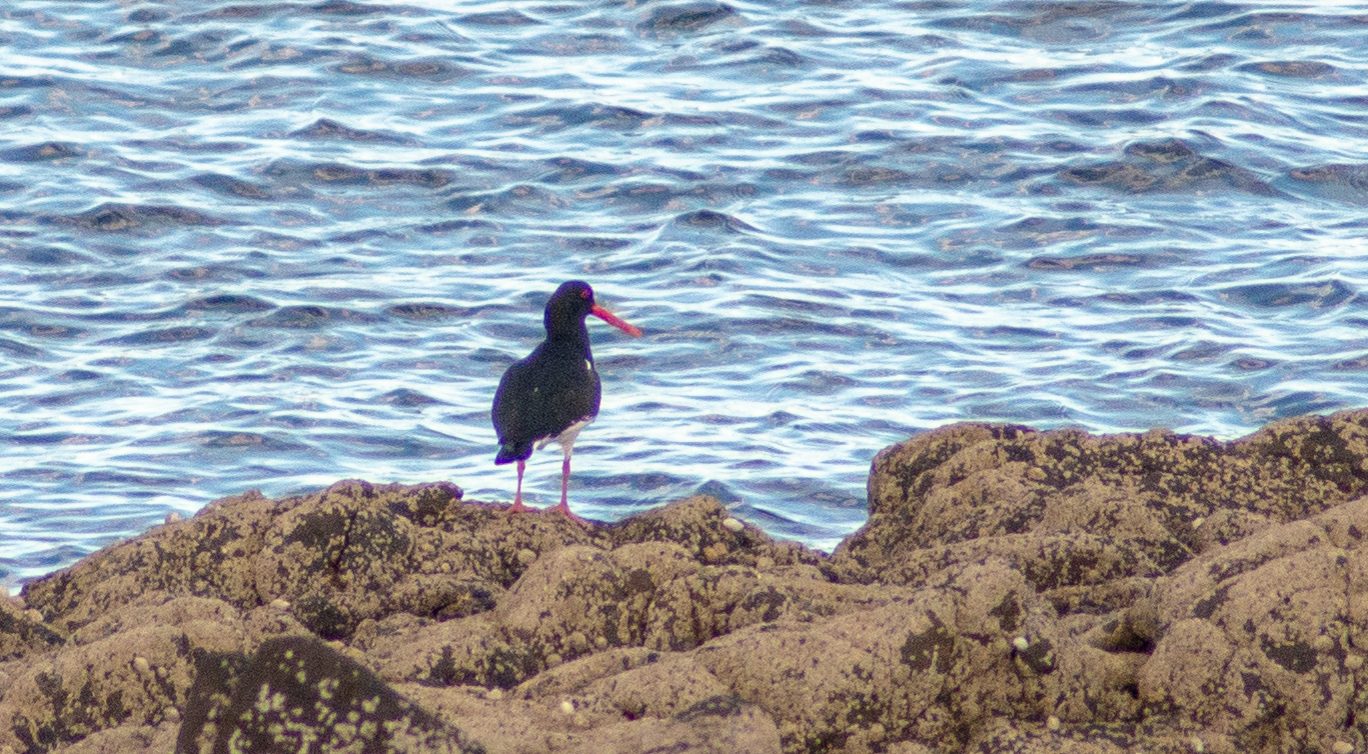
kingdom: Animalia
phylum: Chordata
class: Aves
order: Charadriiformes
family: Haematopodidae
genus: Haematopus
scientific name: Haematopus ostralegus
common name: Eurasian oystercatcher
